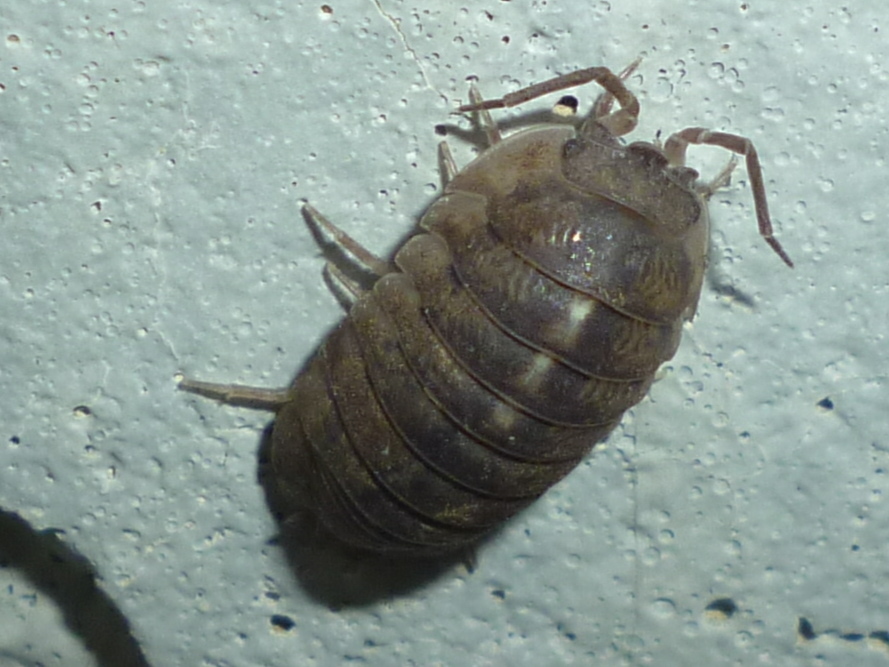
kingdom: Animalia
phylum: Arthropoda
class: Malacostraca
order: Isopoda
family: Armadillidiidae
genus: Armadillidium
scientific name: Armadillidium nasatum
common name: Isopod
